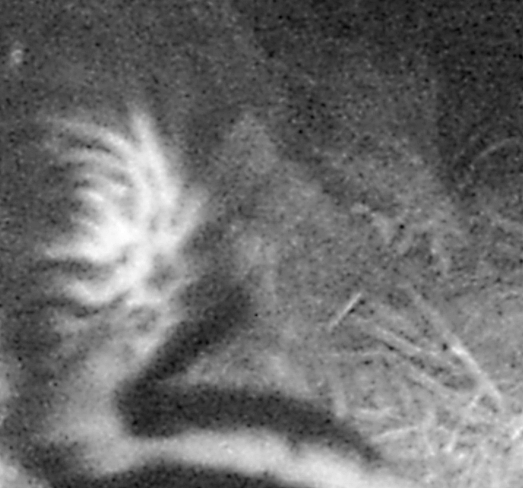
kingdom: Animalia
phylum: Chordata
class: Mammalia
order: Carnivora
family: Mephitidae
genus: Mephitis
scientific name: Mephitis mephitis
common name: Striped skunk
